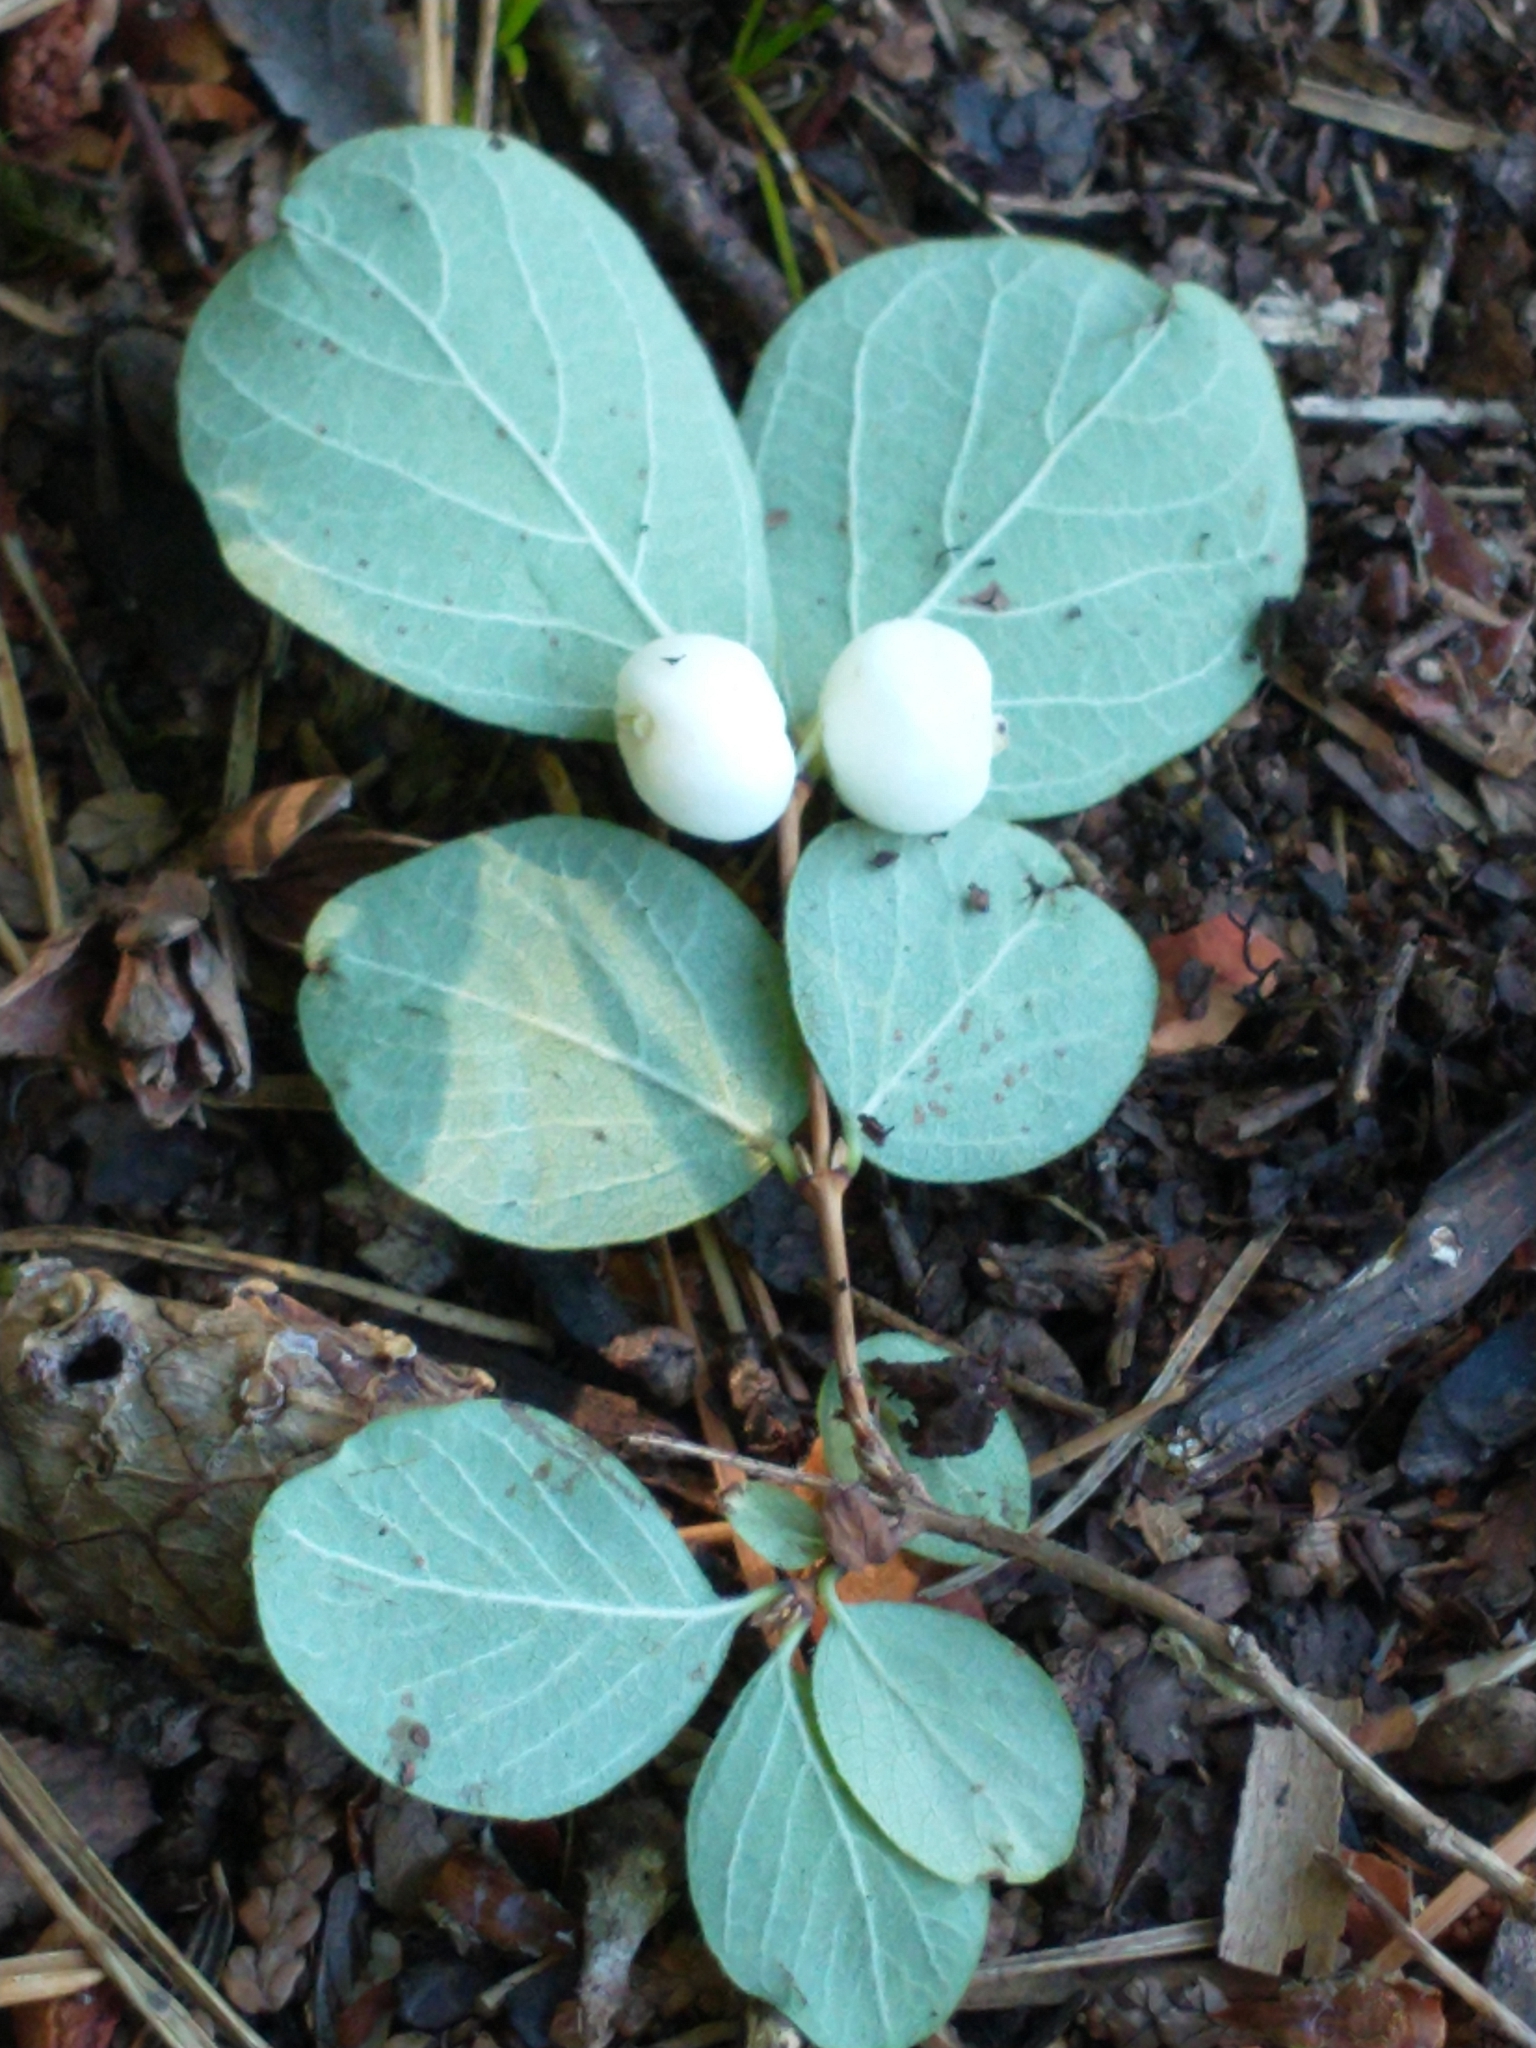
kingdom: Plantae
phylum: Tracheophyta
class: Magnoliopsida
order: Dipsacales
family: Caprifoliaceae
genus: Symphoricarpos
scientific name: Symphoricarpos albus
